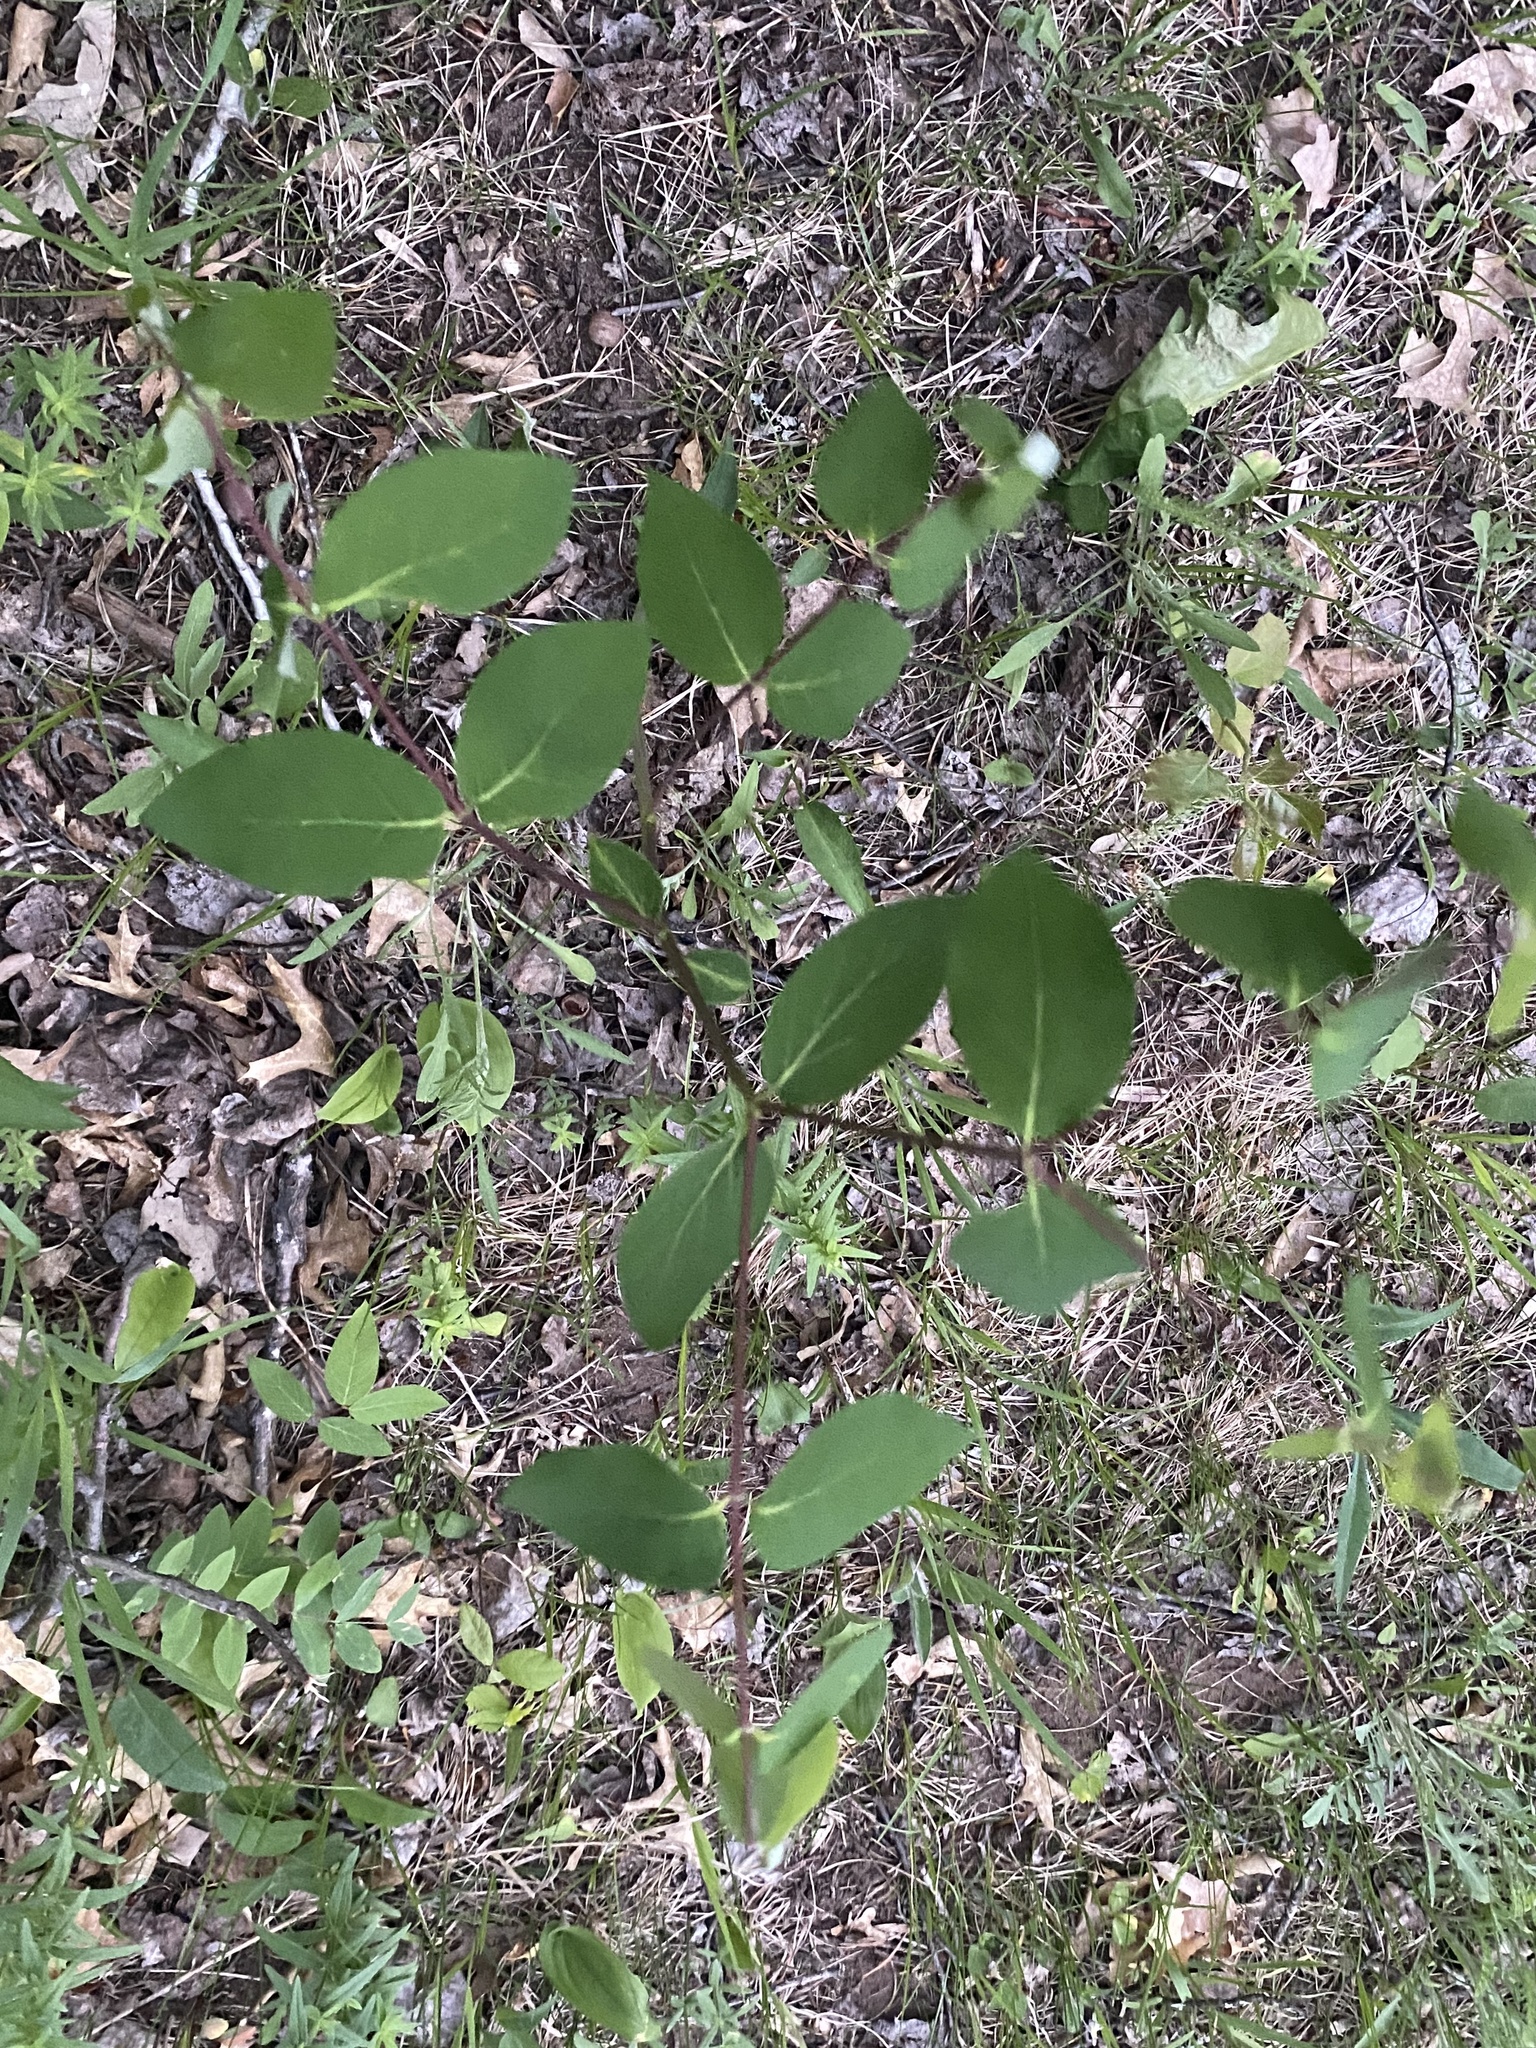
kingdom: Plantae
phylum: Tracheophyta
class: Magnoliopsida
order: Gentianales
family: Apocynaceae
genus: Apocynum
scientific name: Apocynum androsaemifolium
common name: Spreading dogbane
